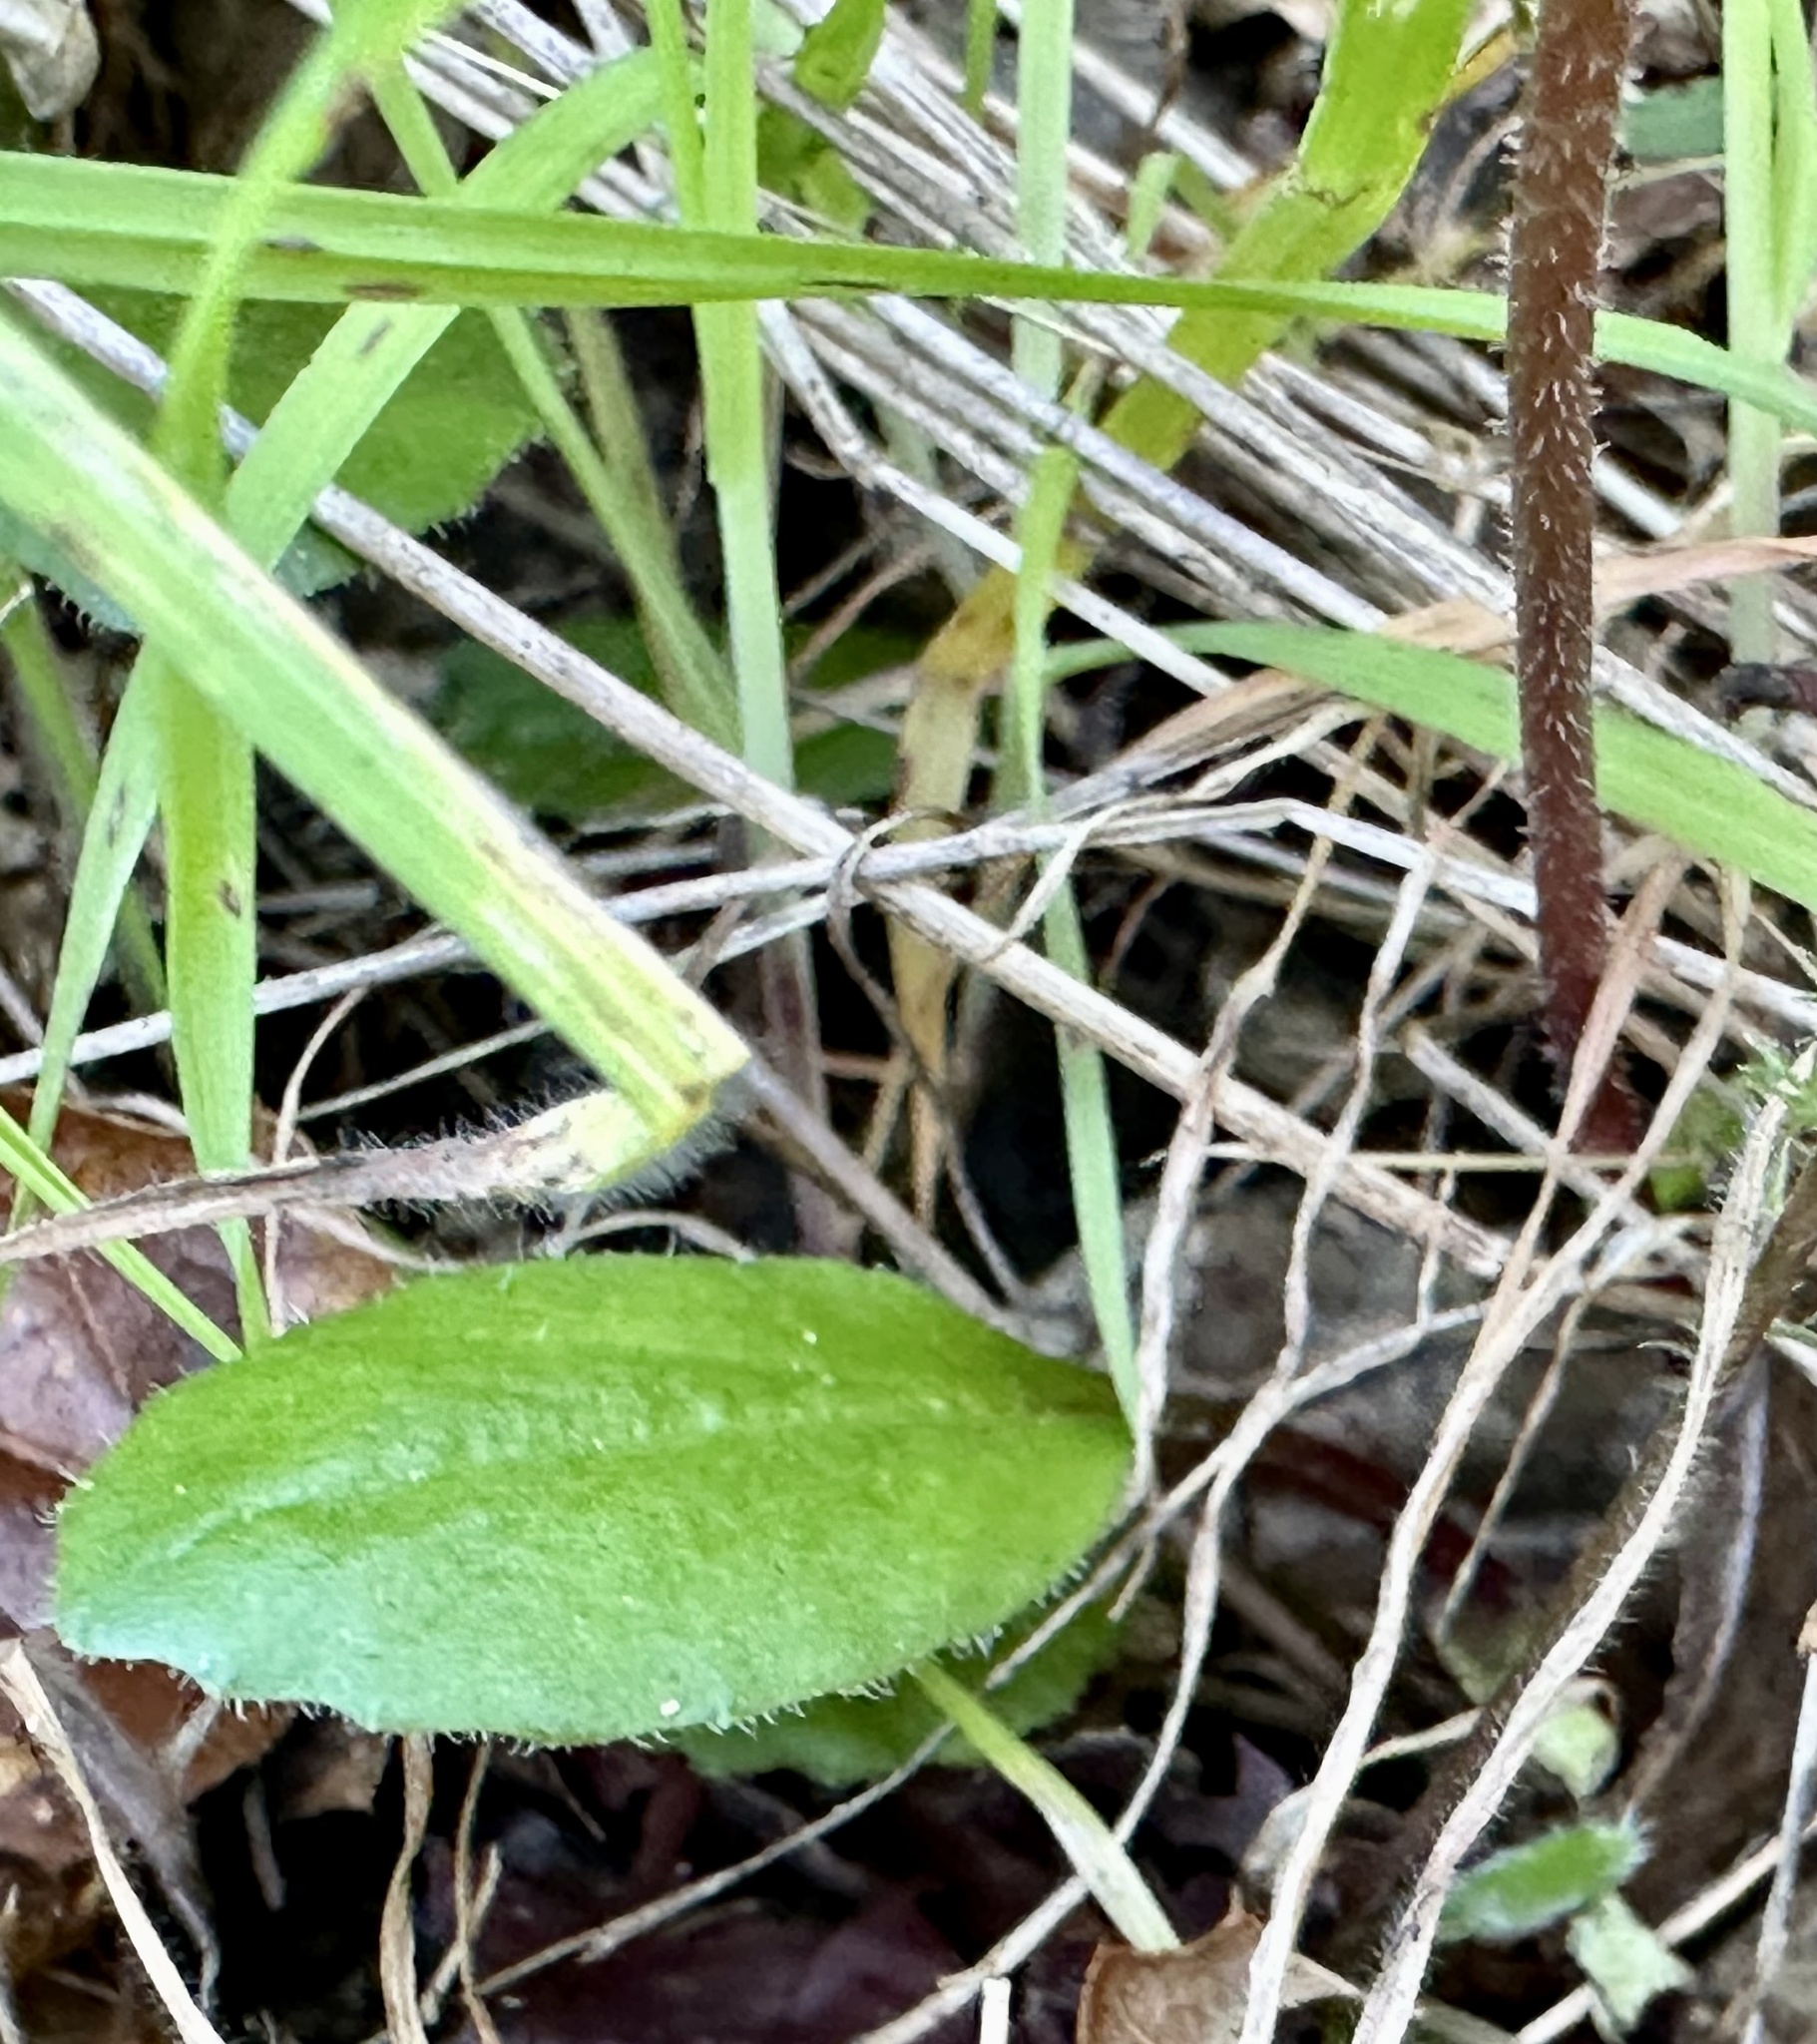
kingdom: Plantae
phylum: Tracheophyta
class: Magnoliopsida
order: Saxifragales
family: Saxifragaceae
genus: Micranthes
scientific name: Micranthes californica
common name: California saxifrage
